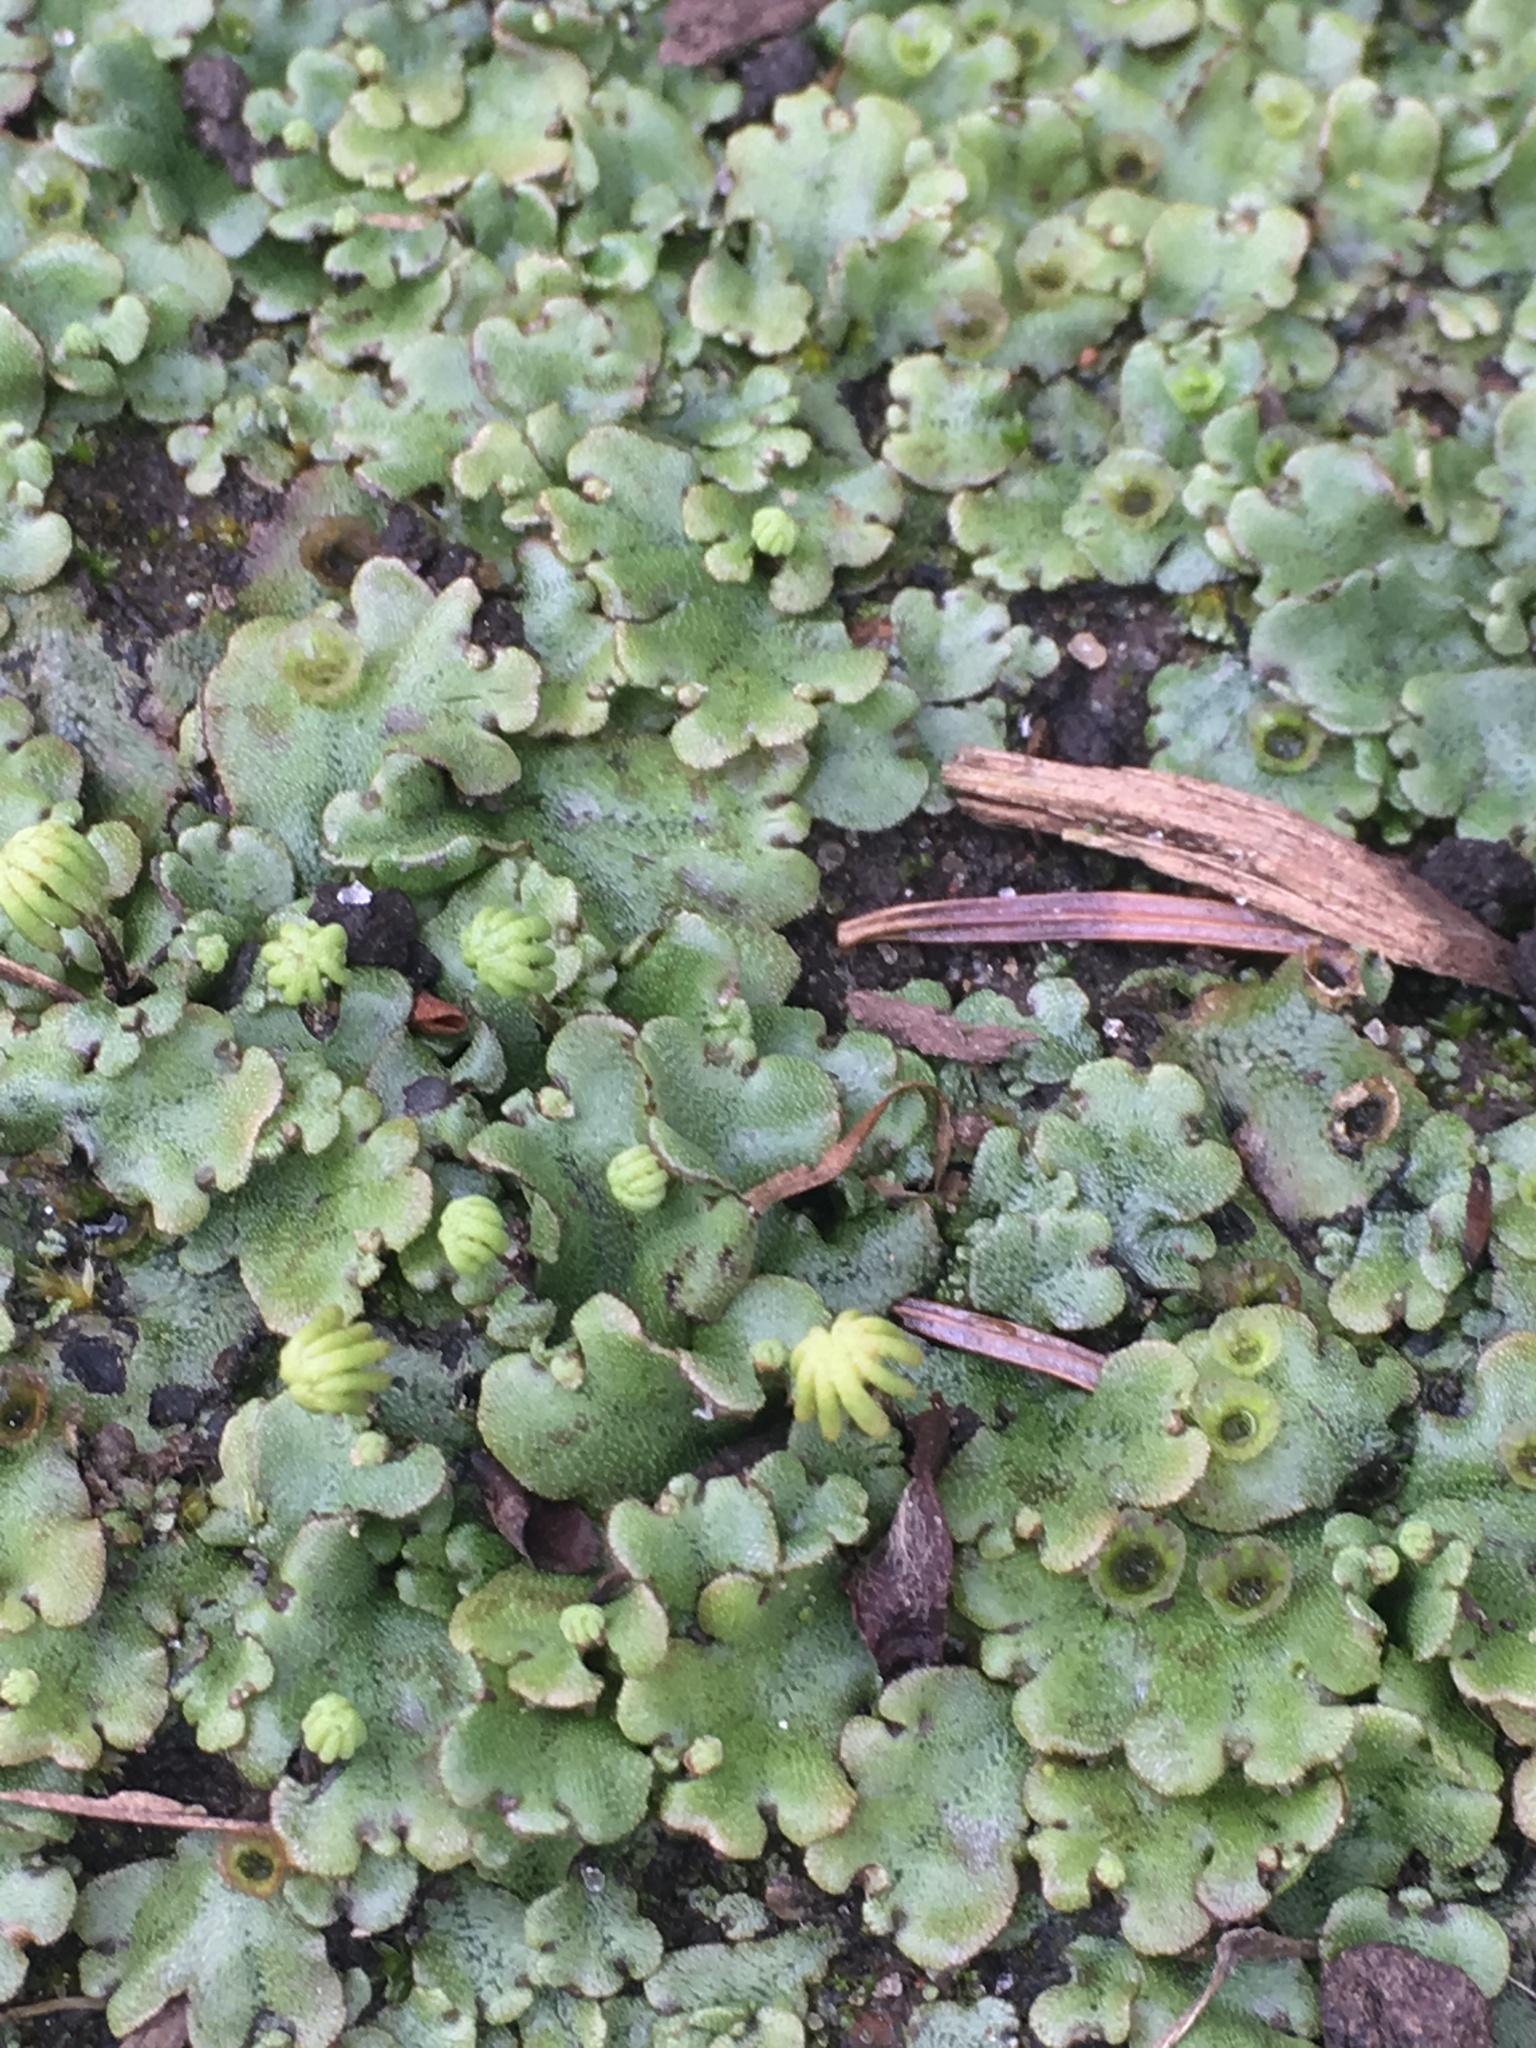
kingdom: Plantae
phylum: Marchantiophyta
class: Marchantiopsida
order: Marchantiales
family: Marchantiaceae
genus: Marchantia
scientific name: Marchantia polymorpha
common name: Common liverwort
